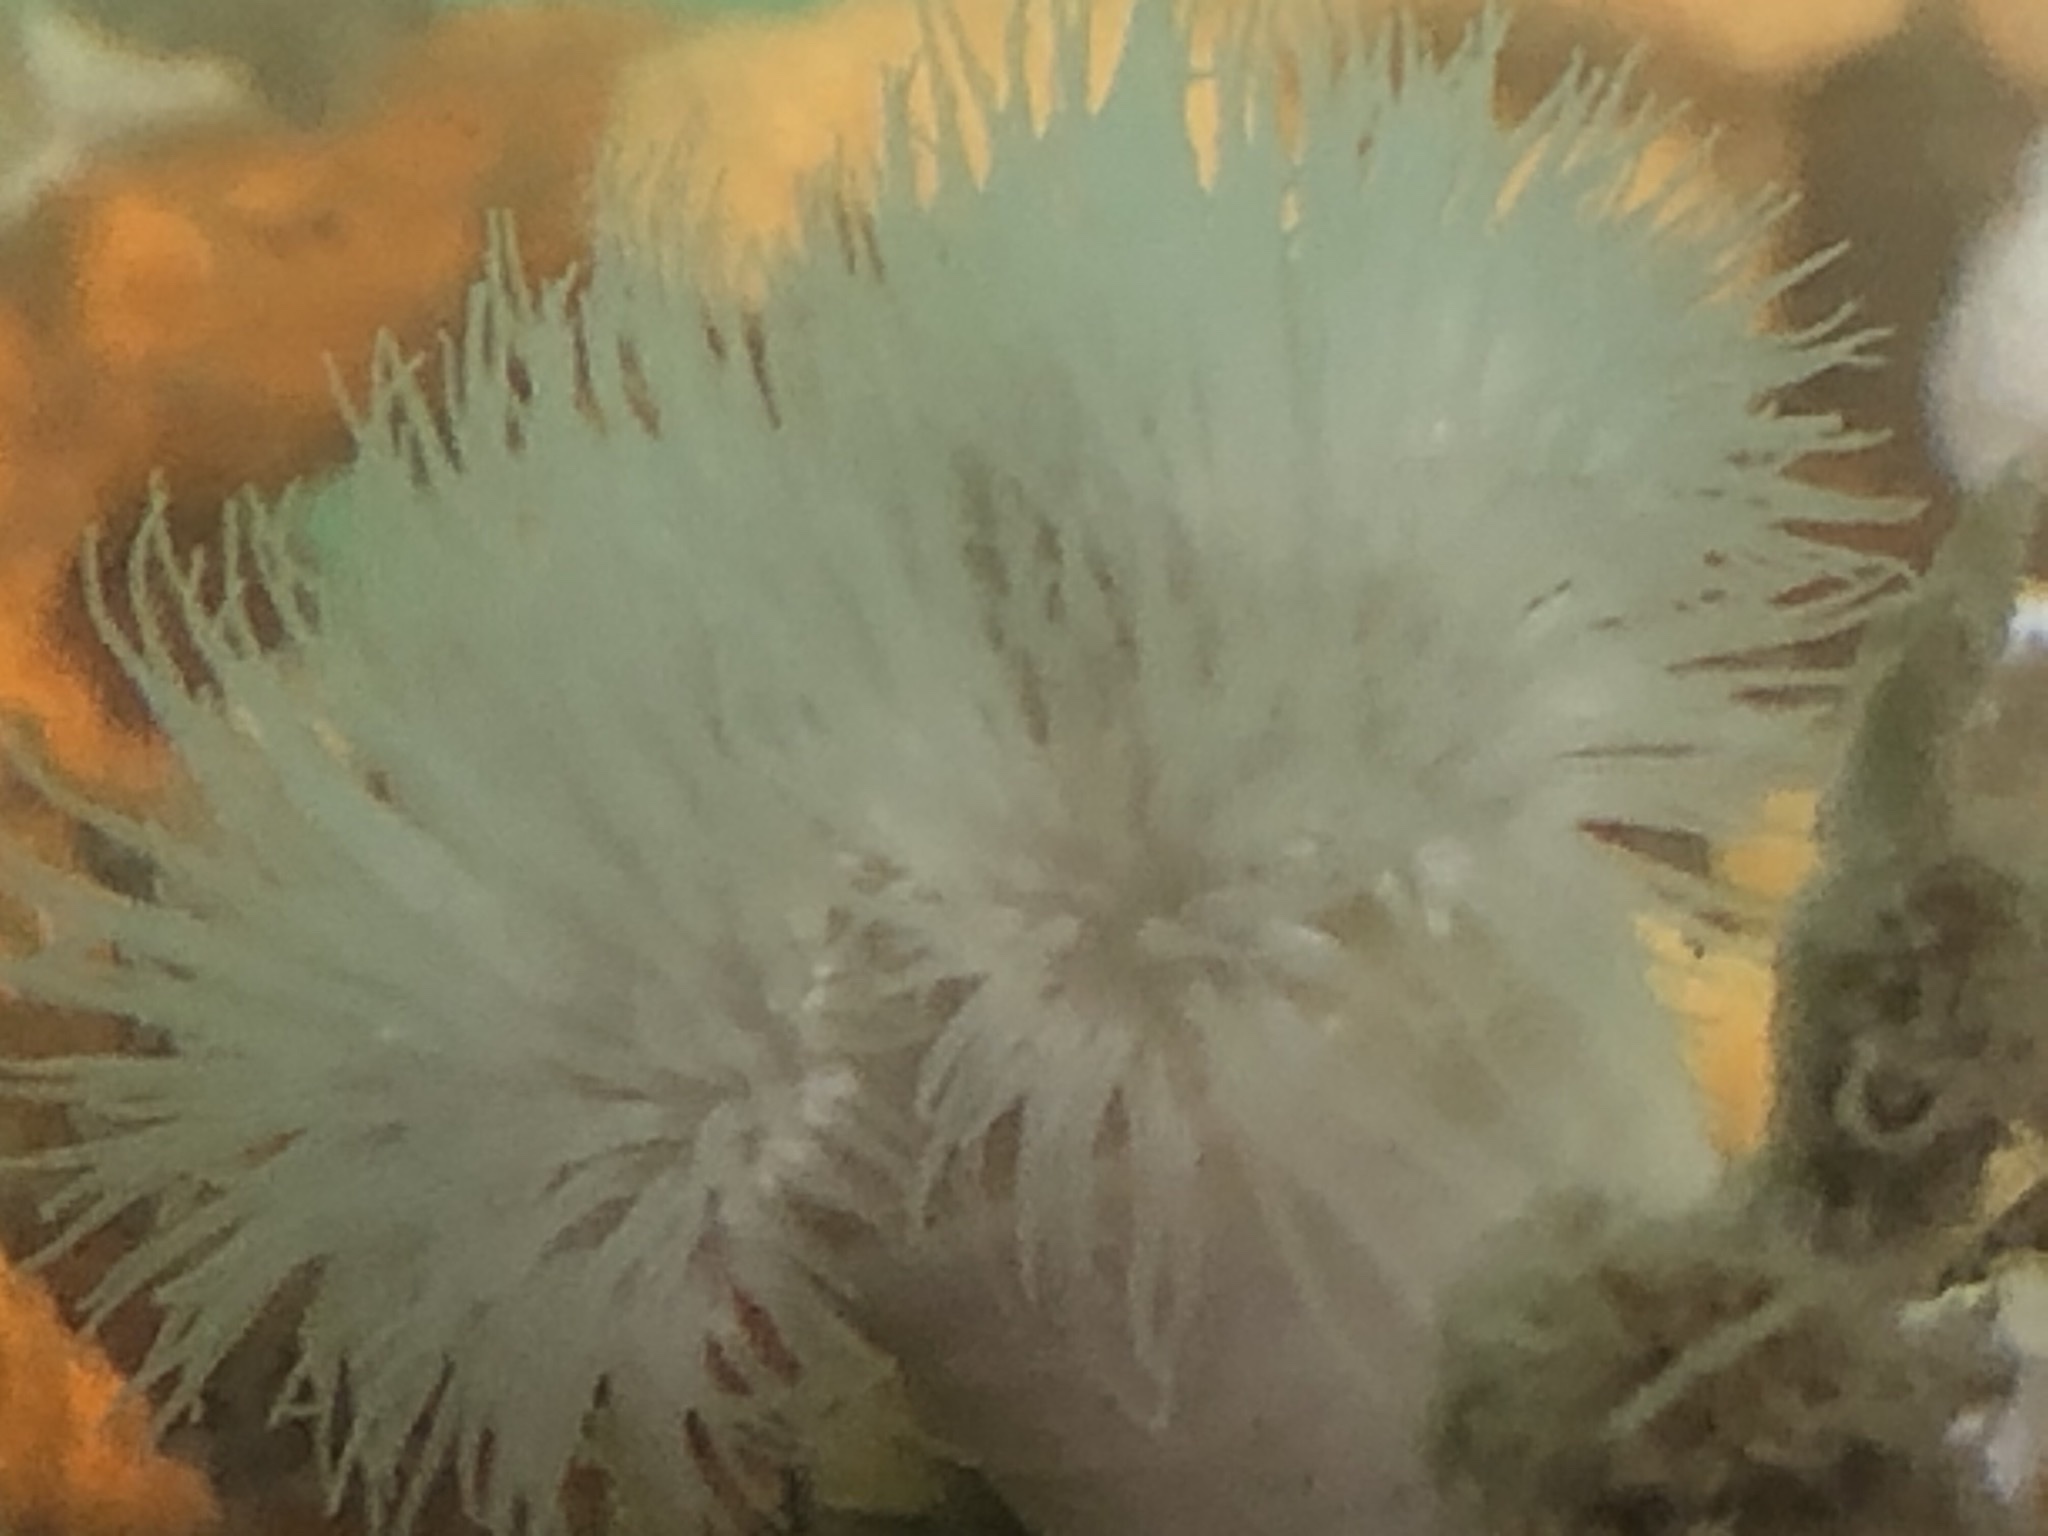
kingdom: Animalia
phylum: Cnidaria
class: Anthozoa
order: Actiniaria
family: Metridiidae
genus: Metridium
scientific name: Metridium senile
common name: Clonal plumose anemone
